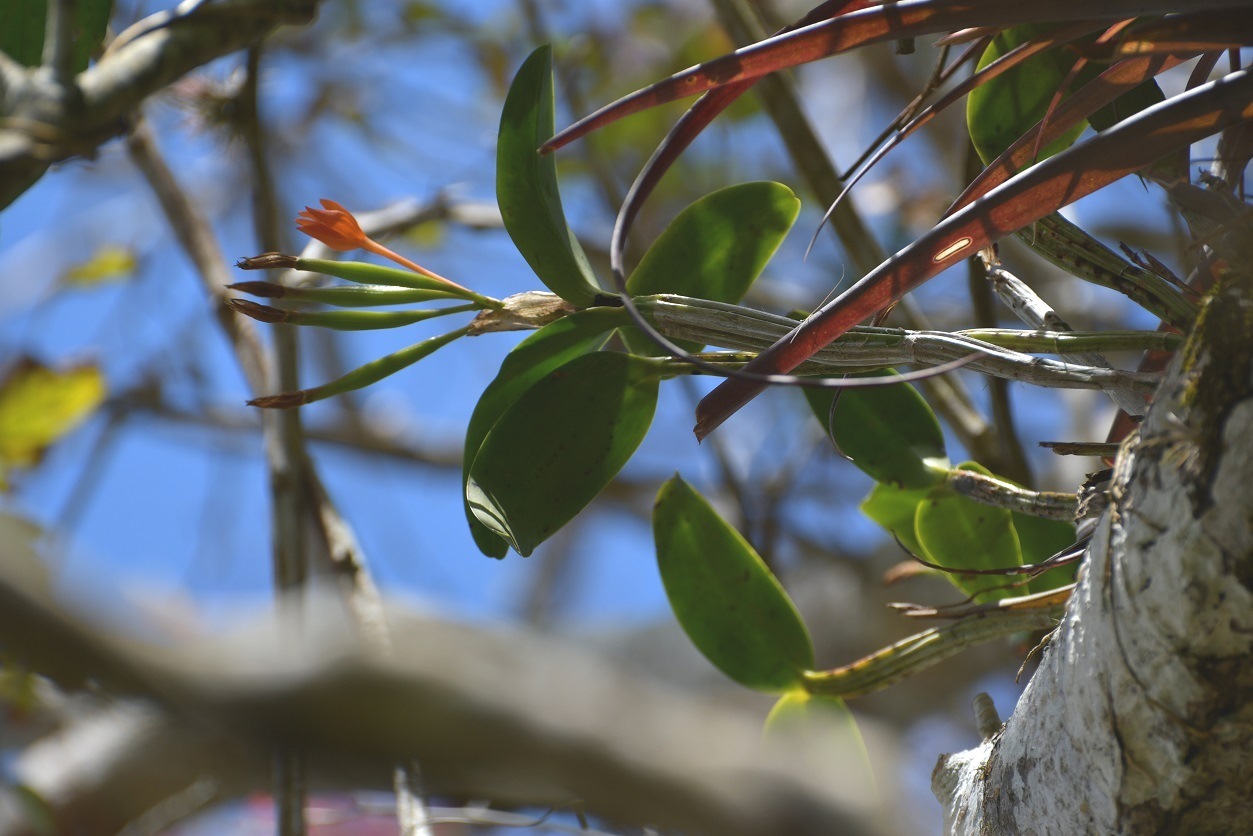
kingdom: Plantae
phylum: Tracheophyta
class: Liliopsida
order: Asparagales
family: Orchidaceae
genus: Guarianthe
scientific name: Guarianthe aurantiaca
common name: Orange cattleya
